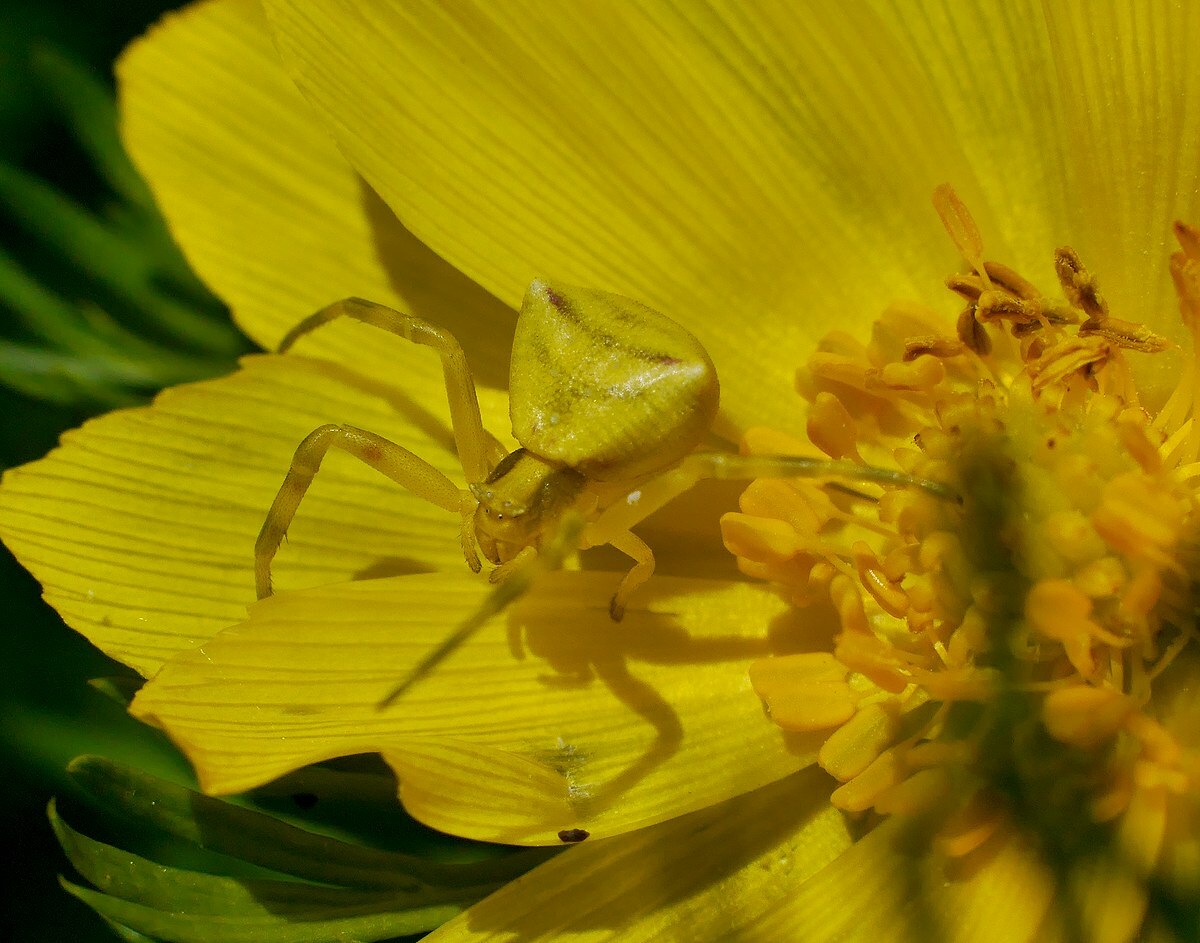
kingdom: Animalia
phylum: Arthropoda
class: Arachnida
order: Araneae
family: Thomisidae
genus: Thomisus
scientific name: Thomisus onustus
